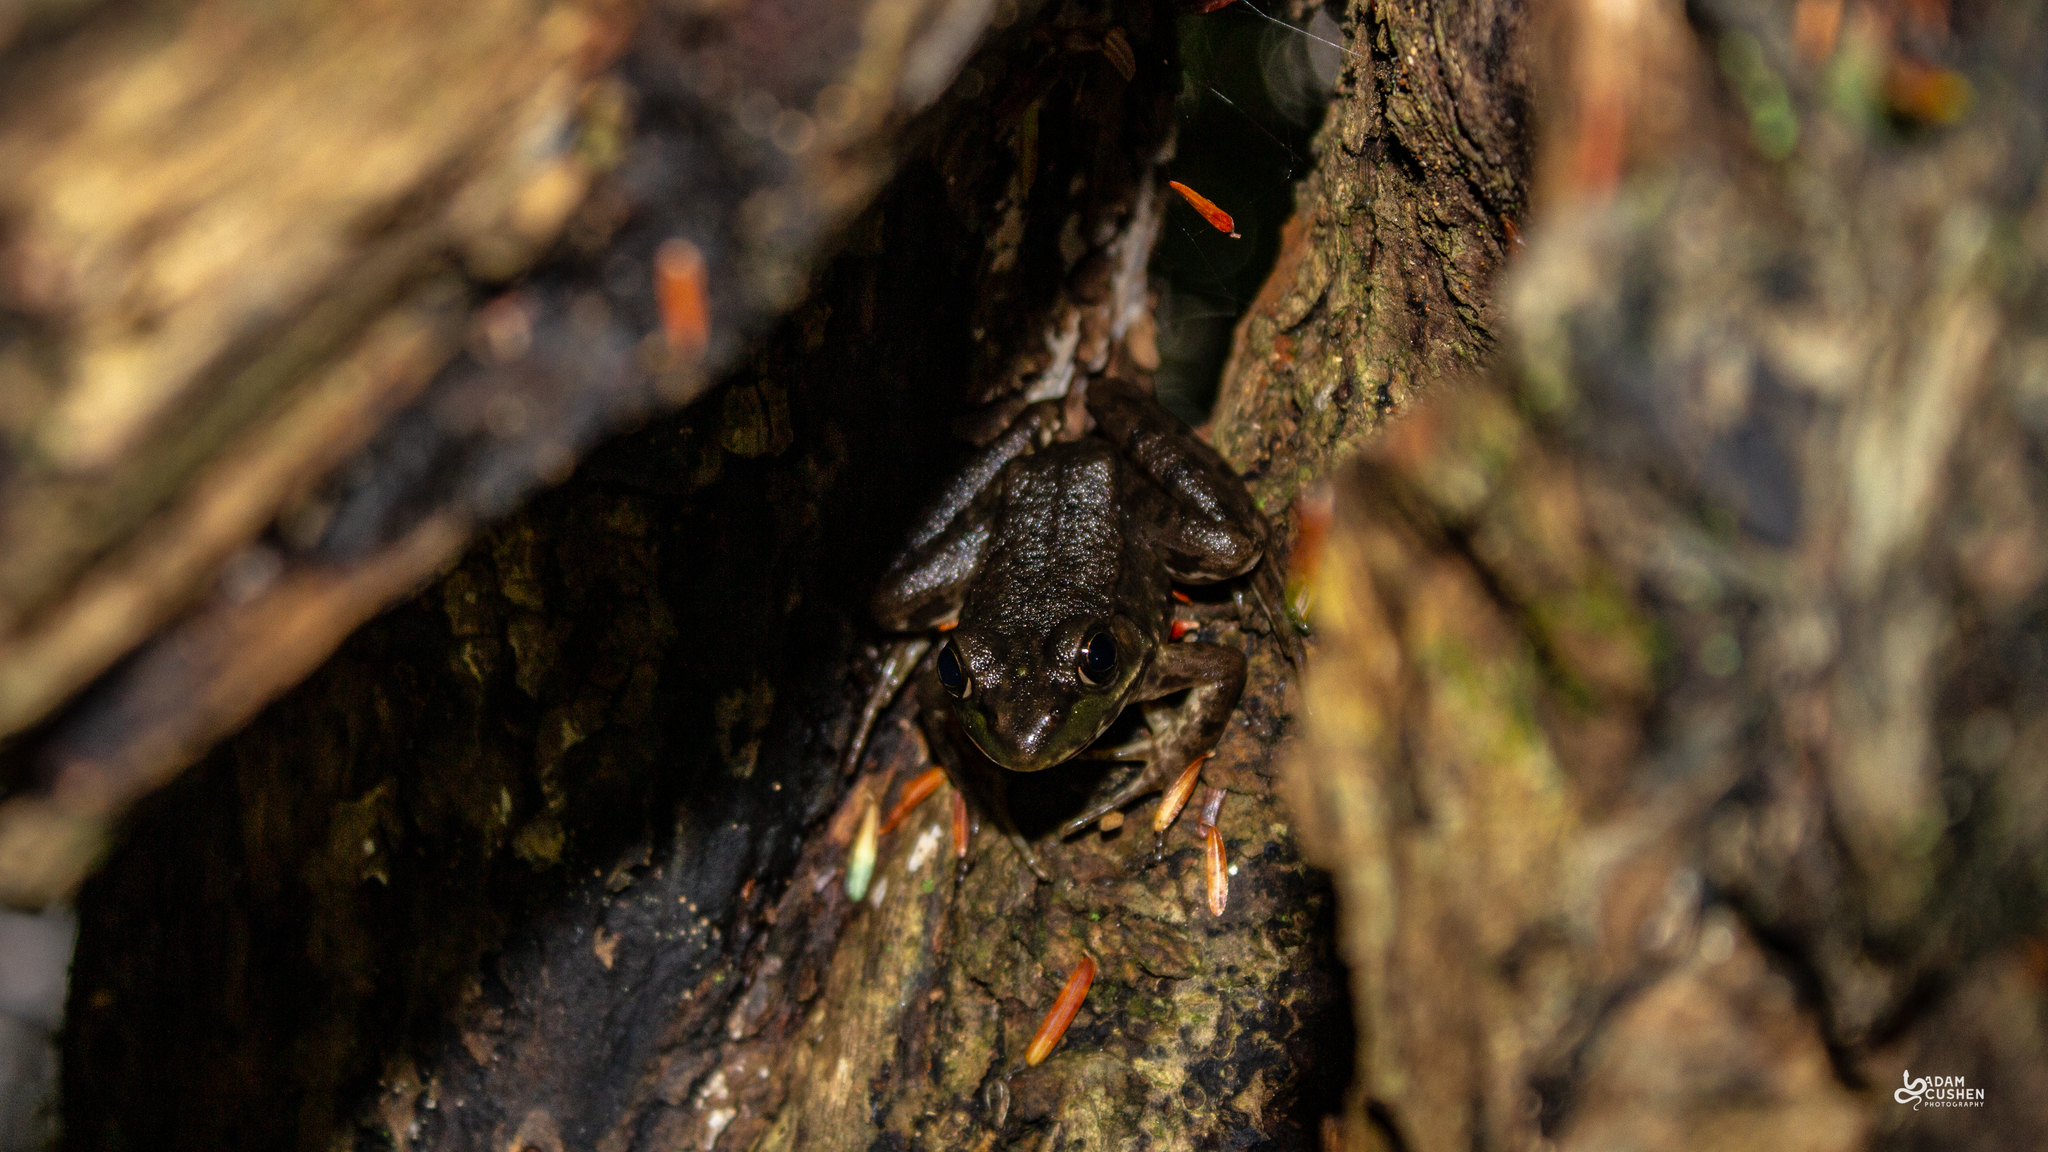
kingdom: Animalia
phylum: Chordata
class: Amphibia
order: Anura
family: Ranidae
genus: Lithobates
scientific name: Lithobates clamitans
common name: Green frog
